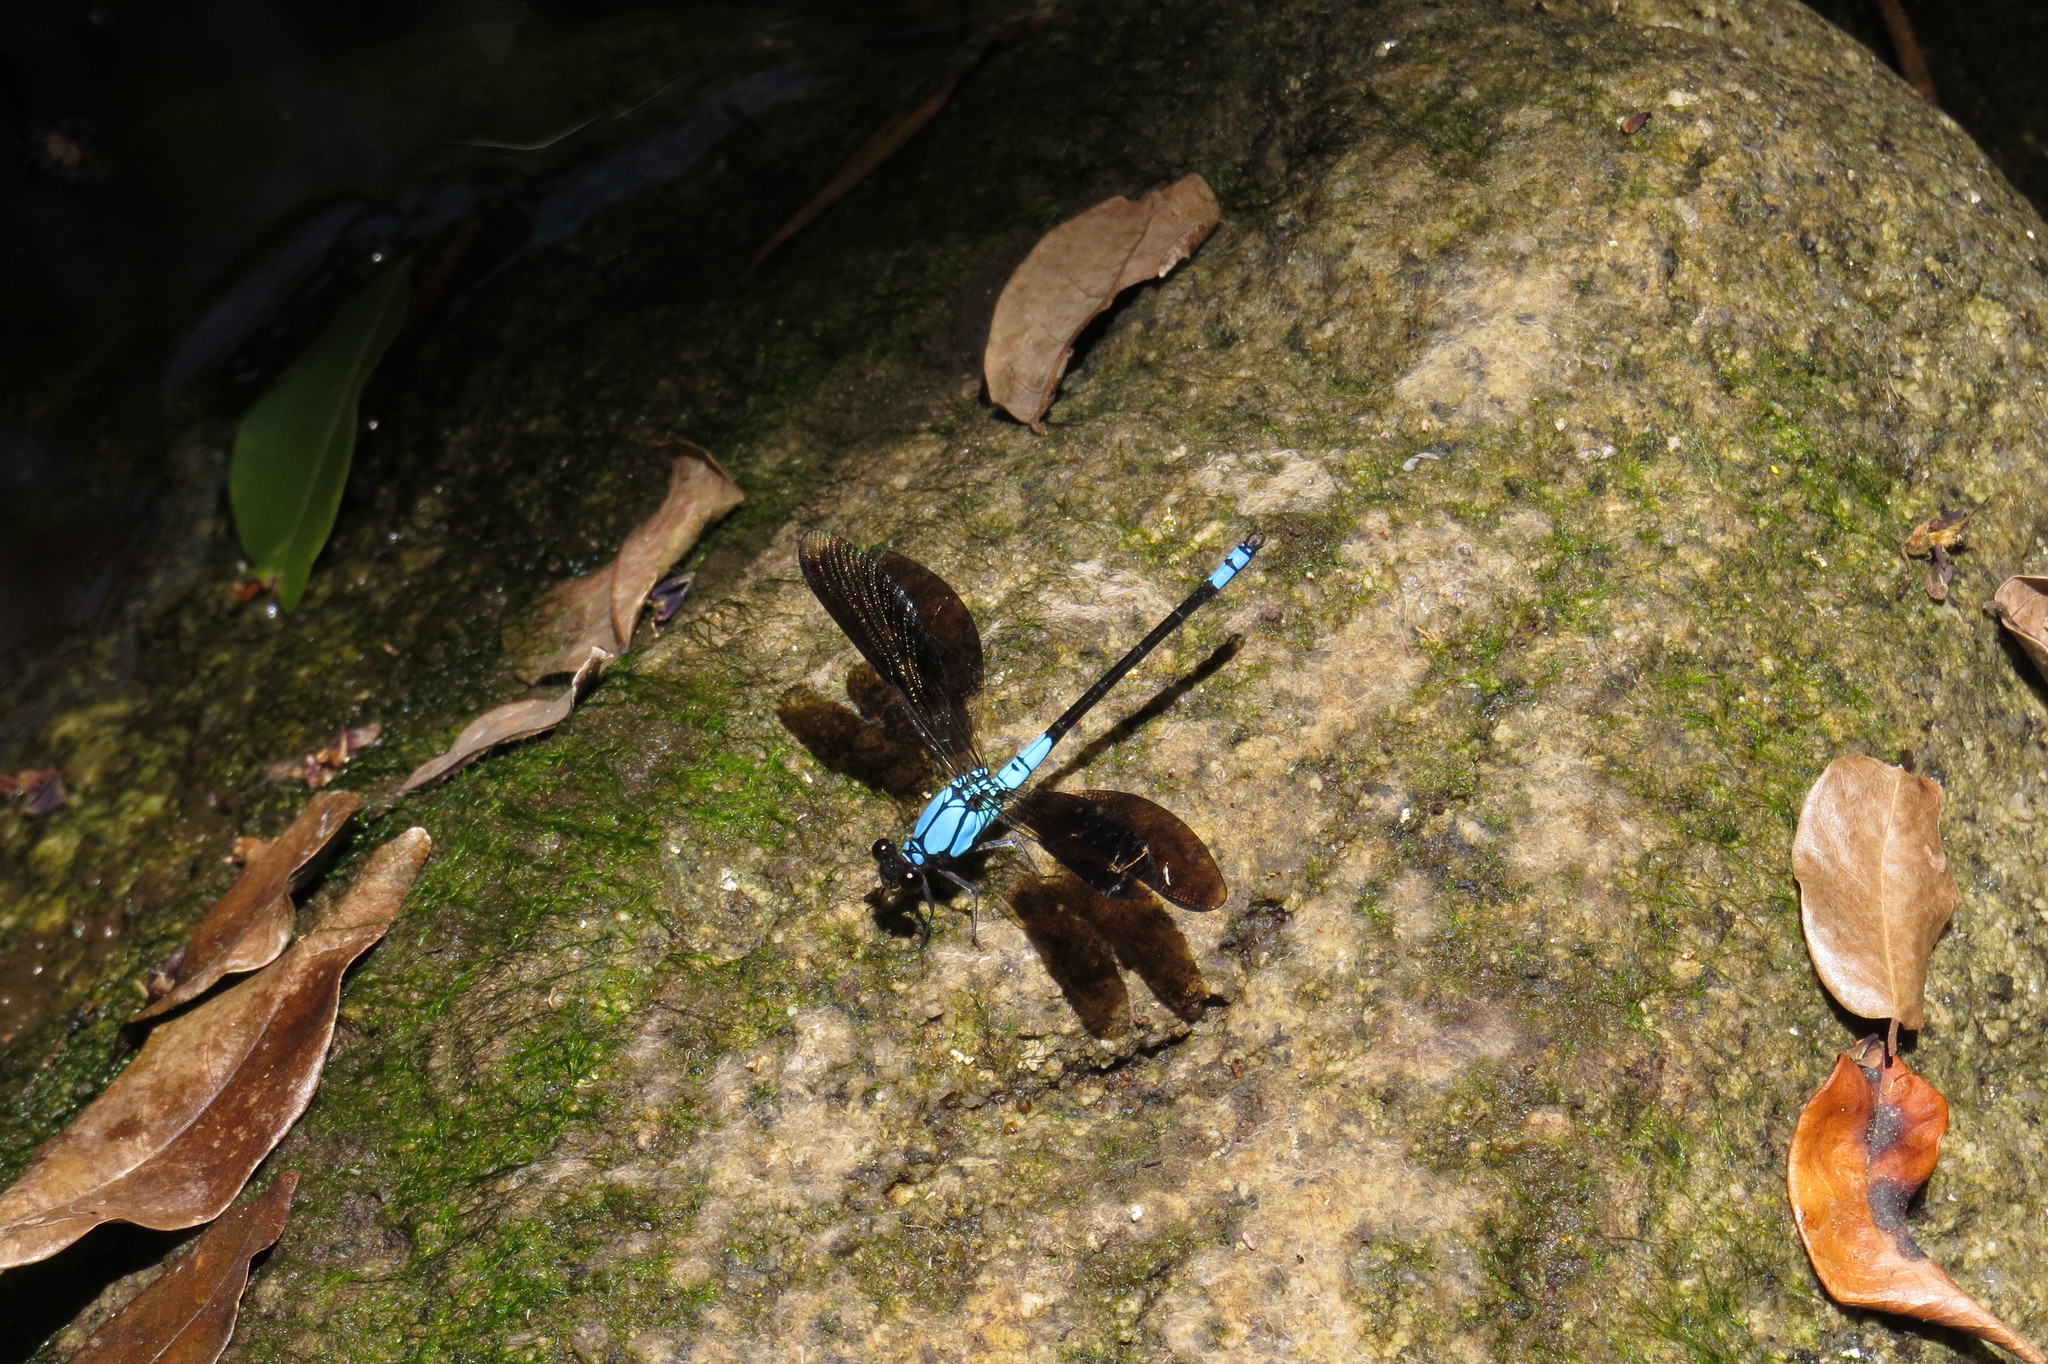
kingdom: Animalia
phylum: Arthropoda
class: Insecta
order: Odonata
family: Lestoideidae
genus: Diphlebia
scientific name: Diphlebia euphoeoides
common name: Tropical rockmaster
